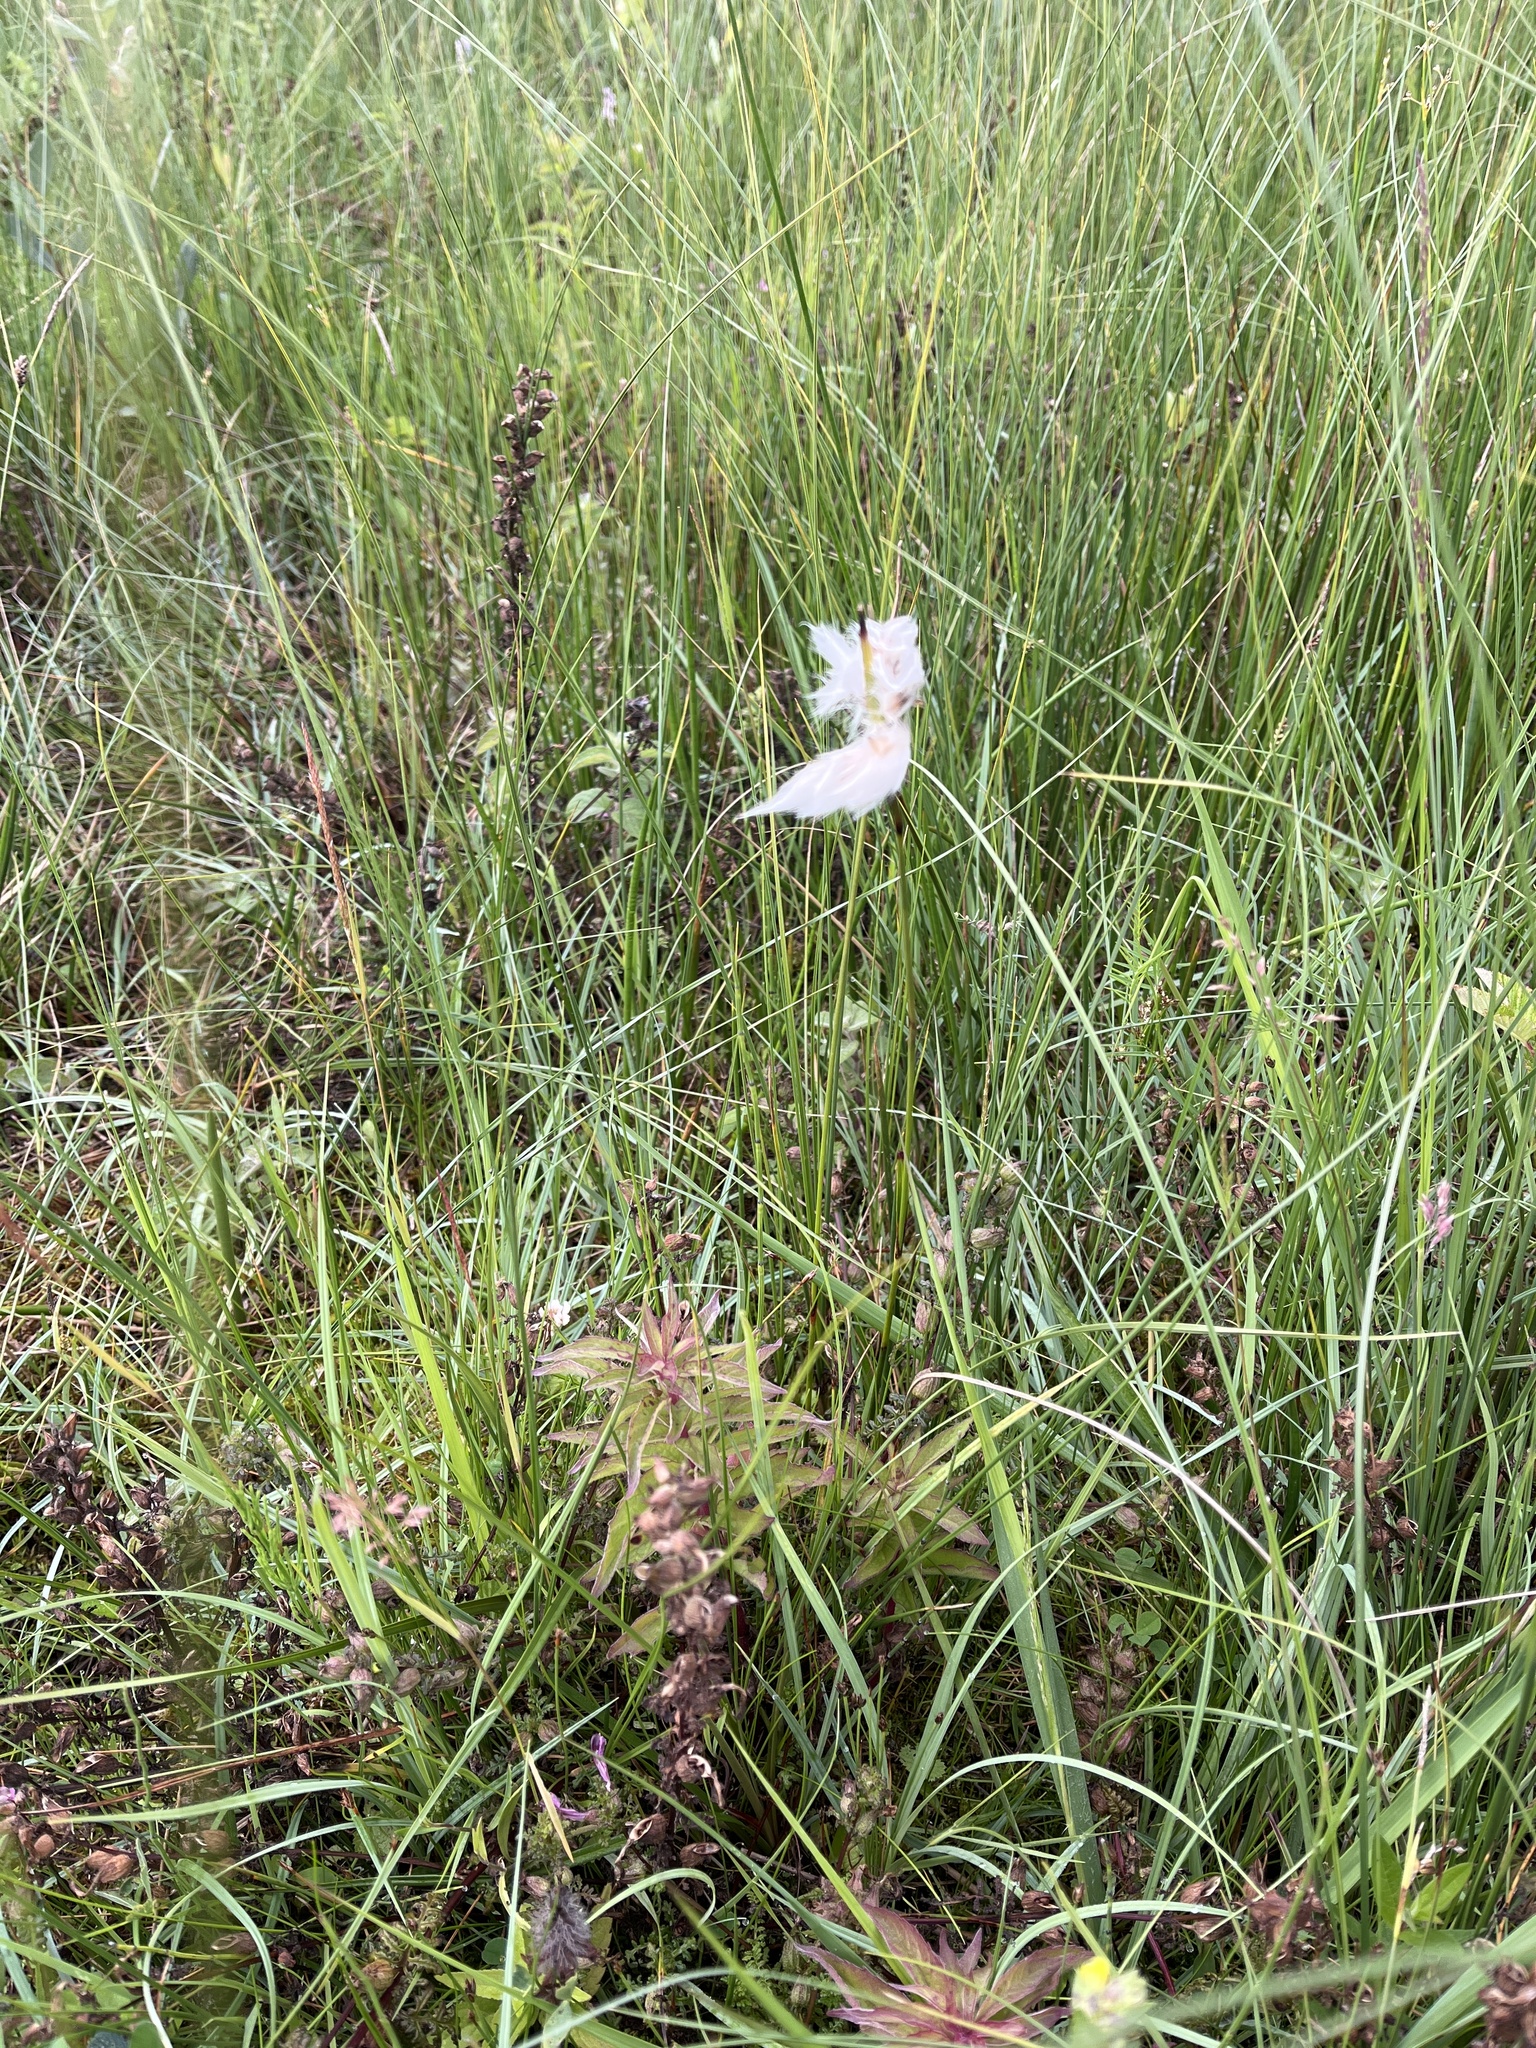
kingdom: Plantae
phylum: Tracheophyta
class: Liliopsida
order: Poales
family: Cyperaceae
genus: Eriophorum
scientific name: Eriophorum angustifolium
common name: Common cottongrass
